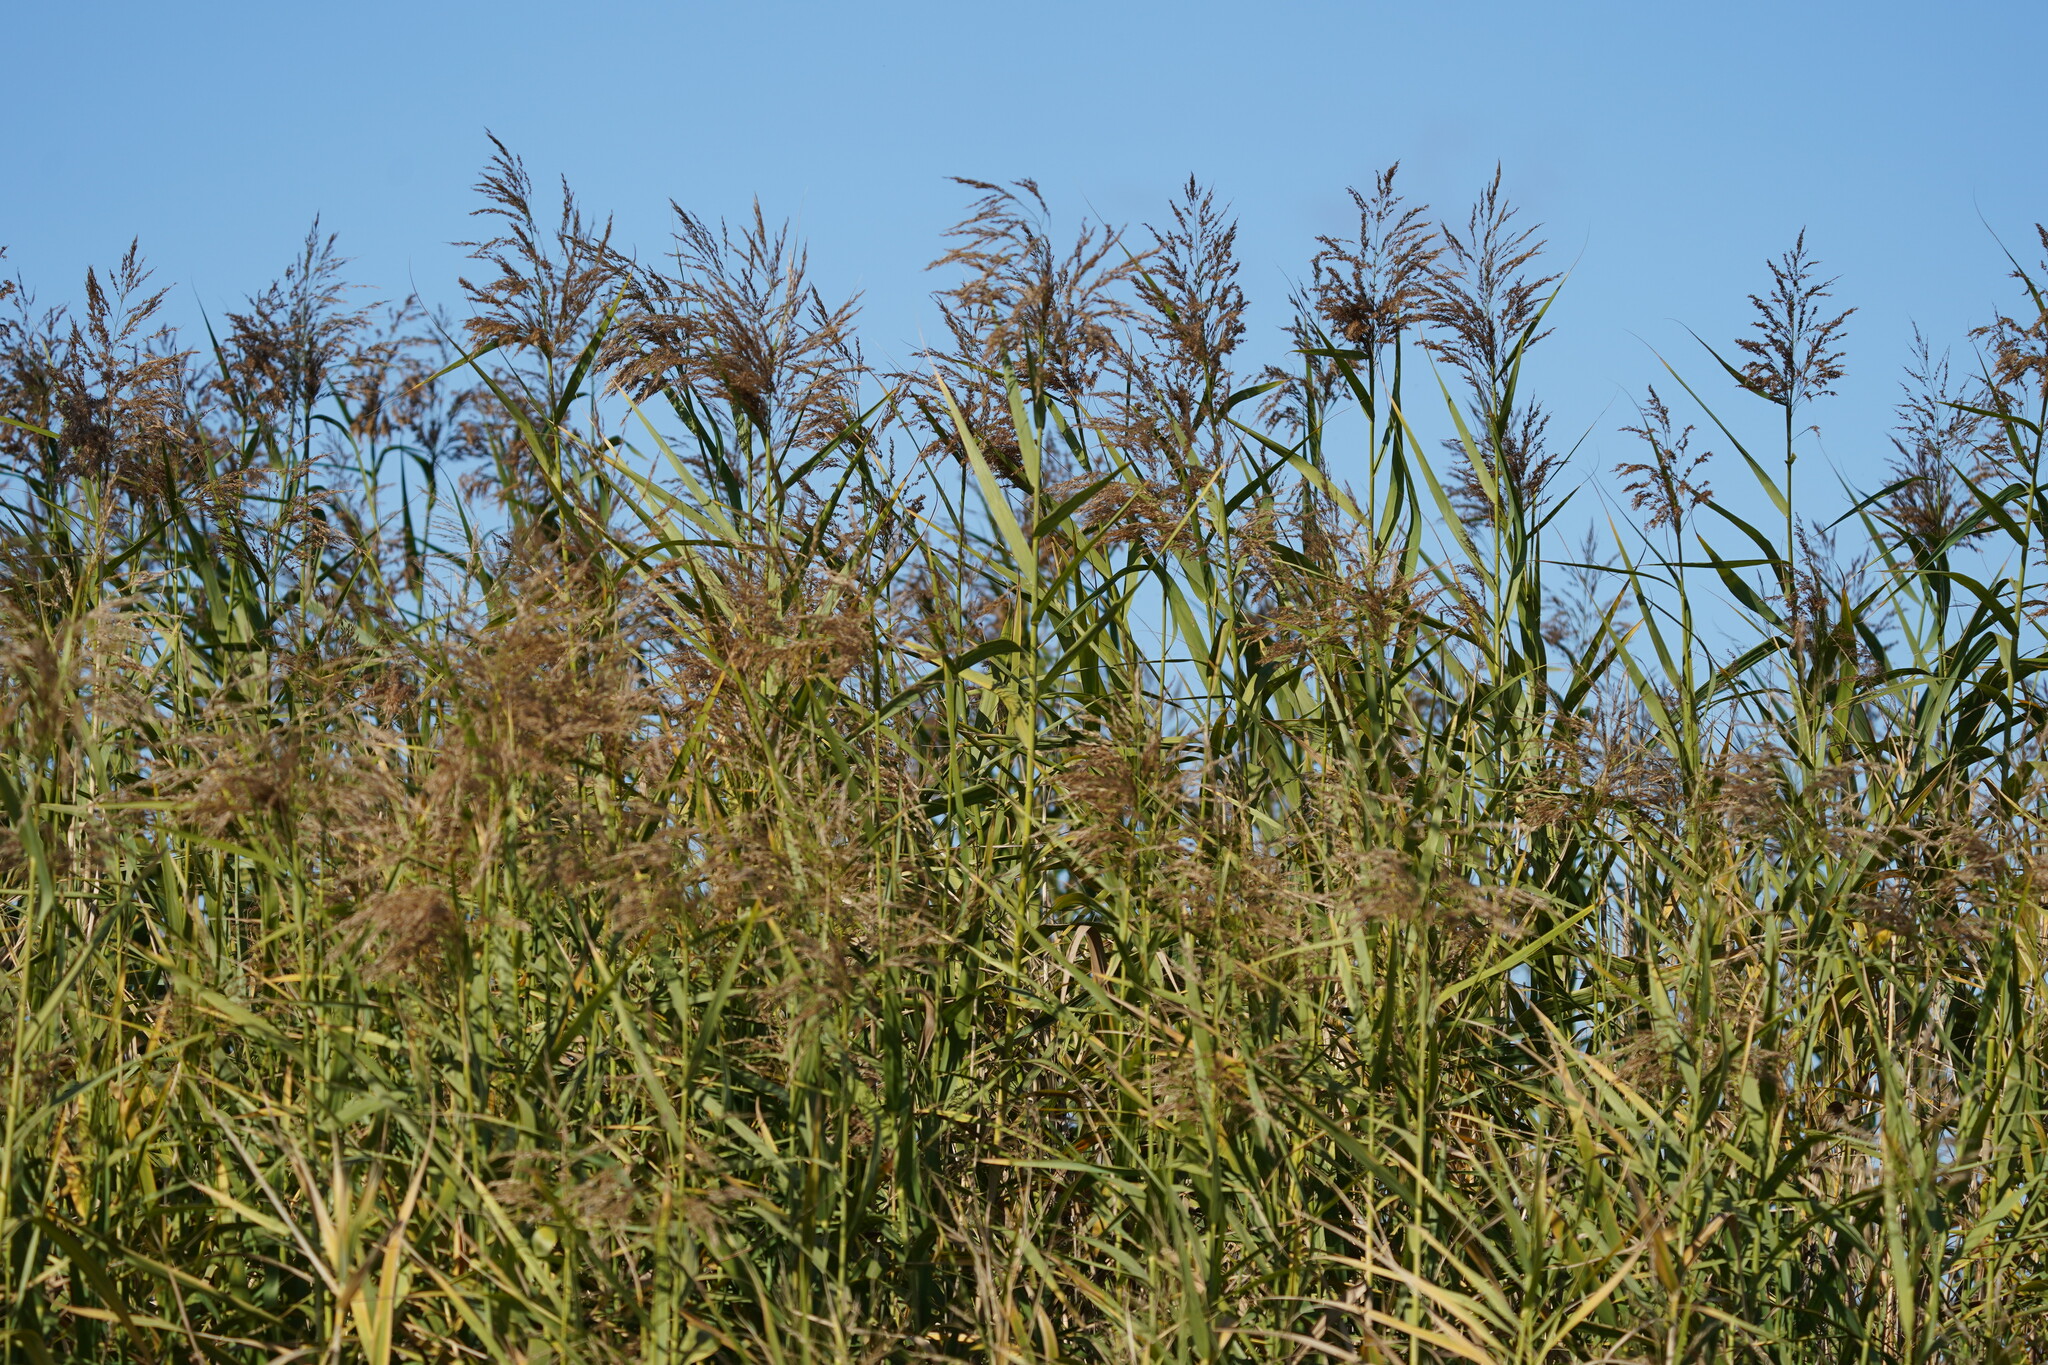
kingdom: Plantae
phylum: Tracheophyta
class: Liliopsida
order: Poales
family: Poaceae
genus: Phragmites
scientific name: Phragmites australis
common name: Common reed
